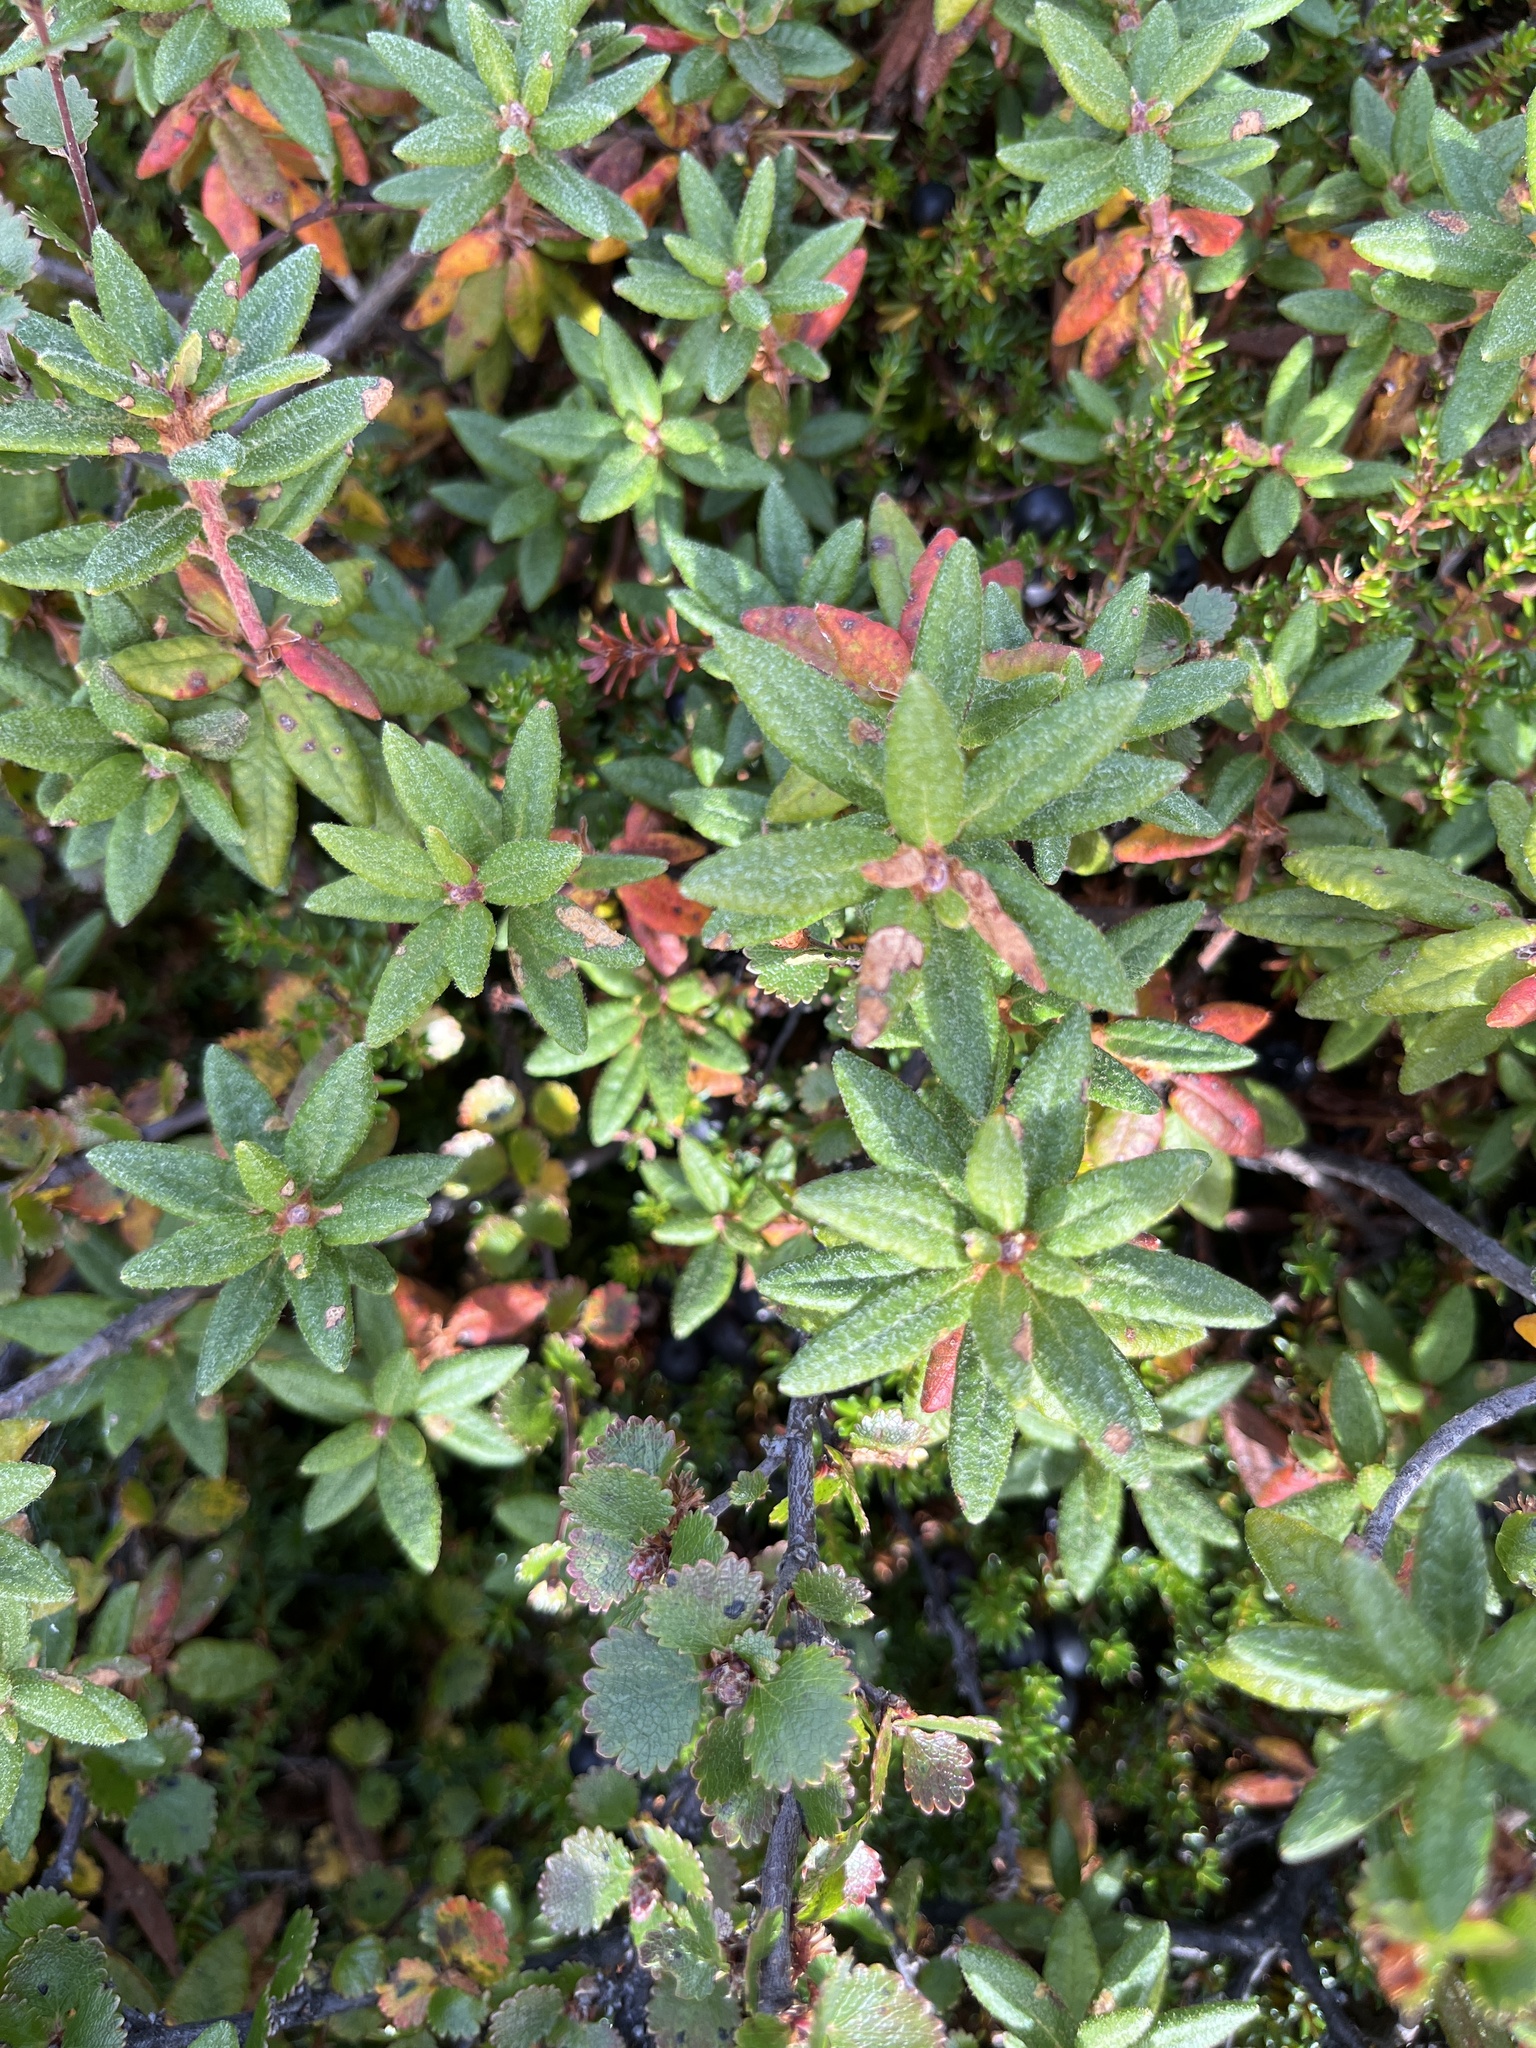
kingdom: Plantae
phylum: Tracheophyta
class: Magnoliopsida
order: Ericales
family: Ericaceae
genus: Rhododendron
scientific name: Rhododendron groenlandicum
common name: Bog labrador tea
